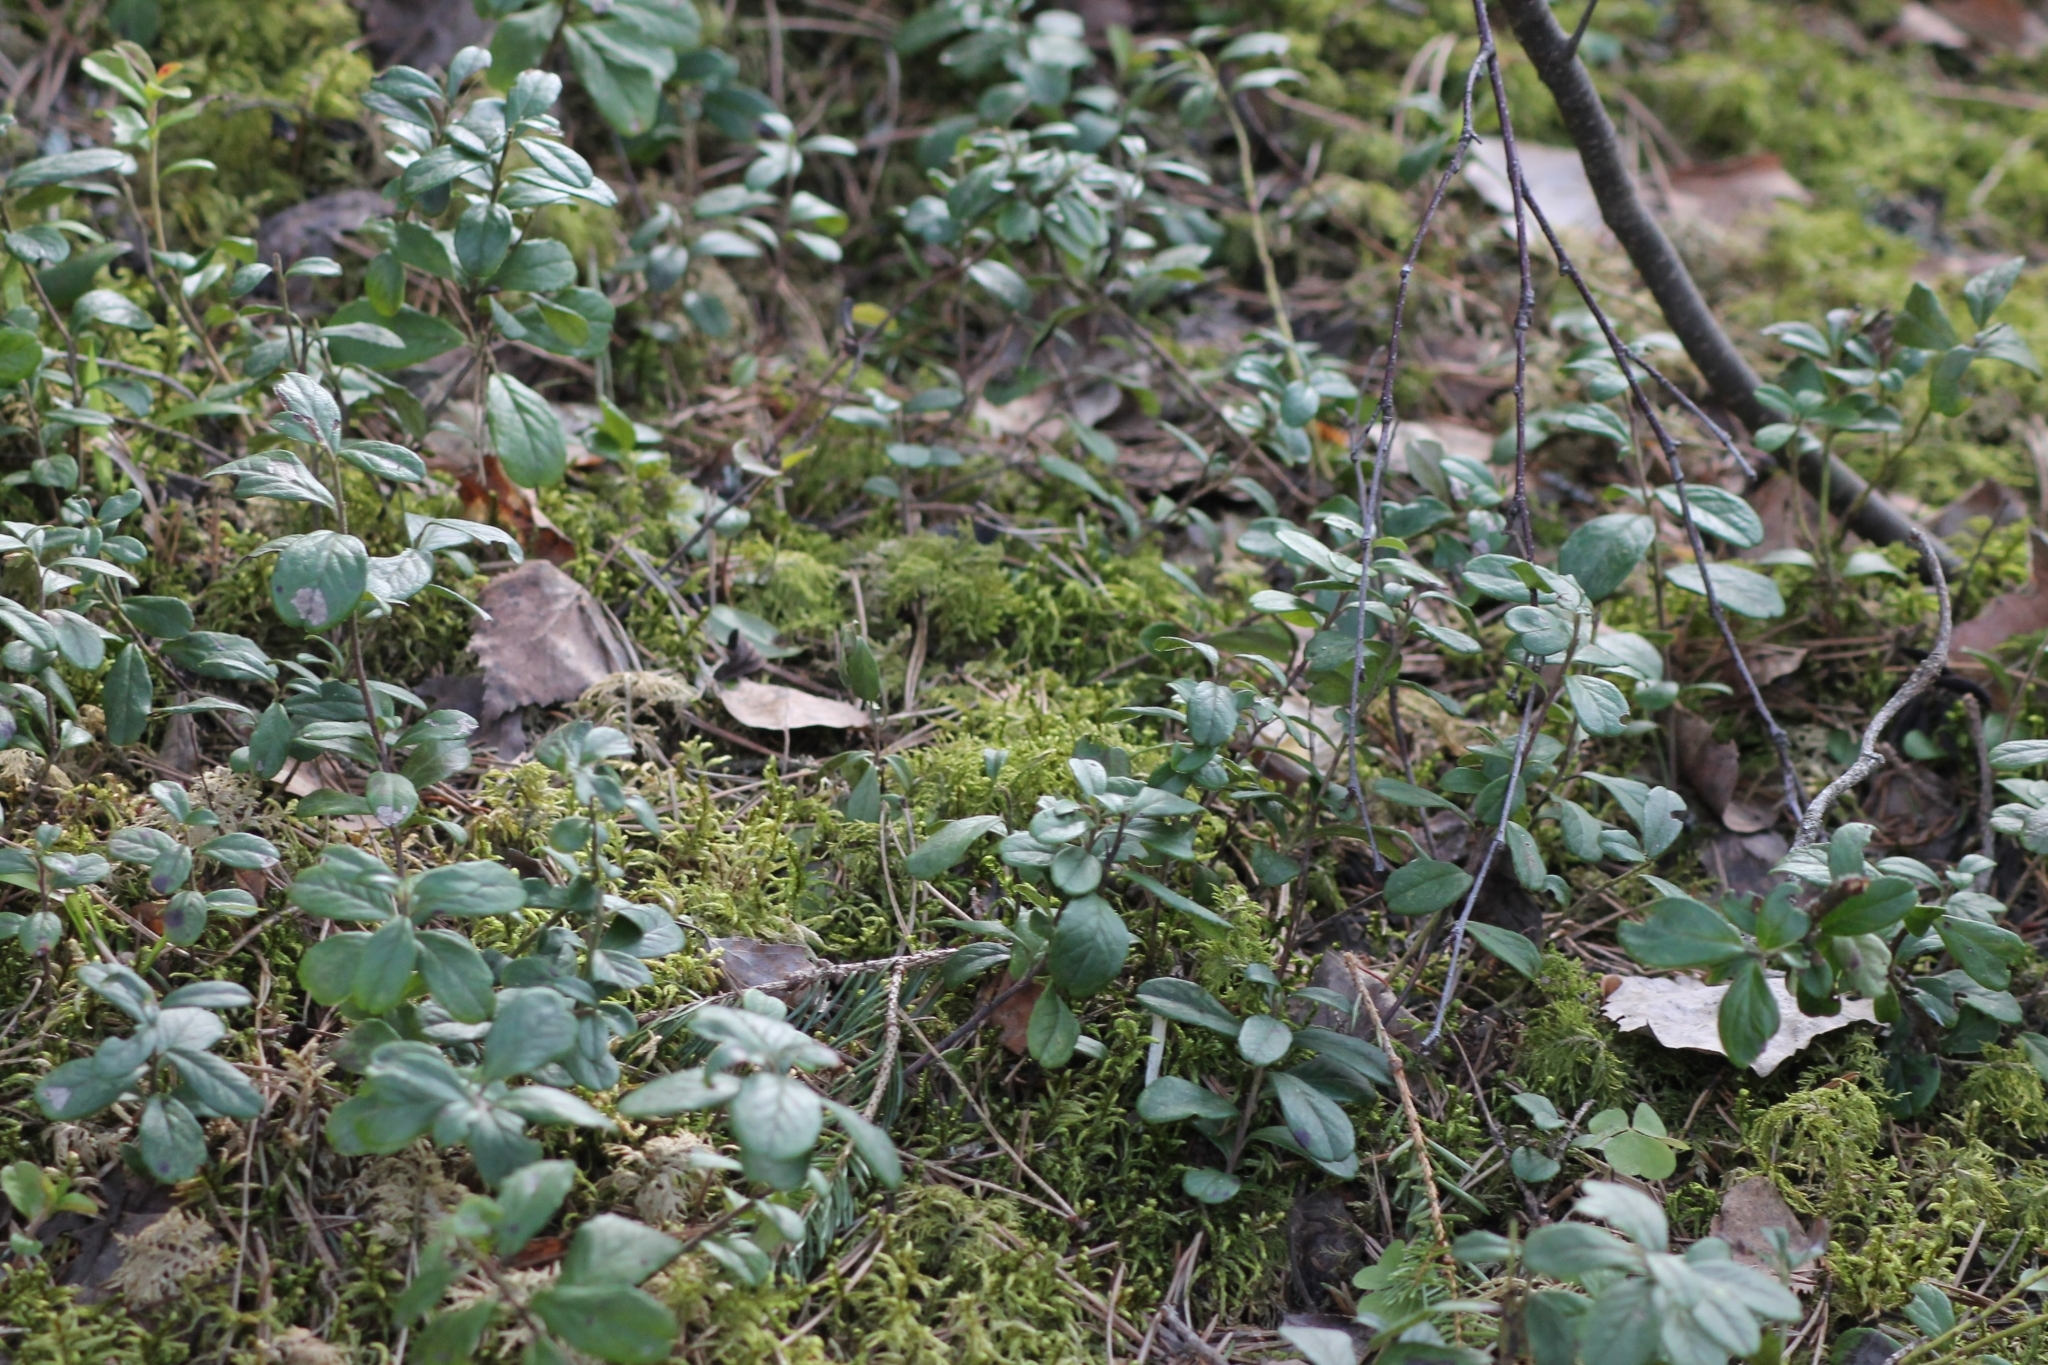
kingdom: Plantae
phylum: Tracheophyta
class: Magnoliopsida
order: Ericales
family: Ericaceae
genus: Vaccinium
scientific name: Vaccinium vitis-idaea
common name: Cowberry
